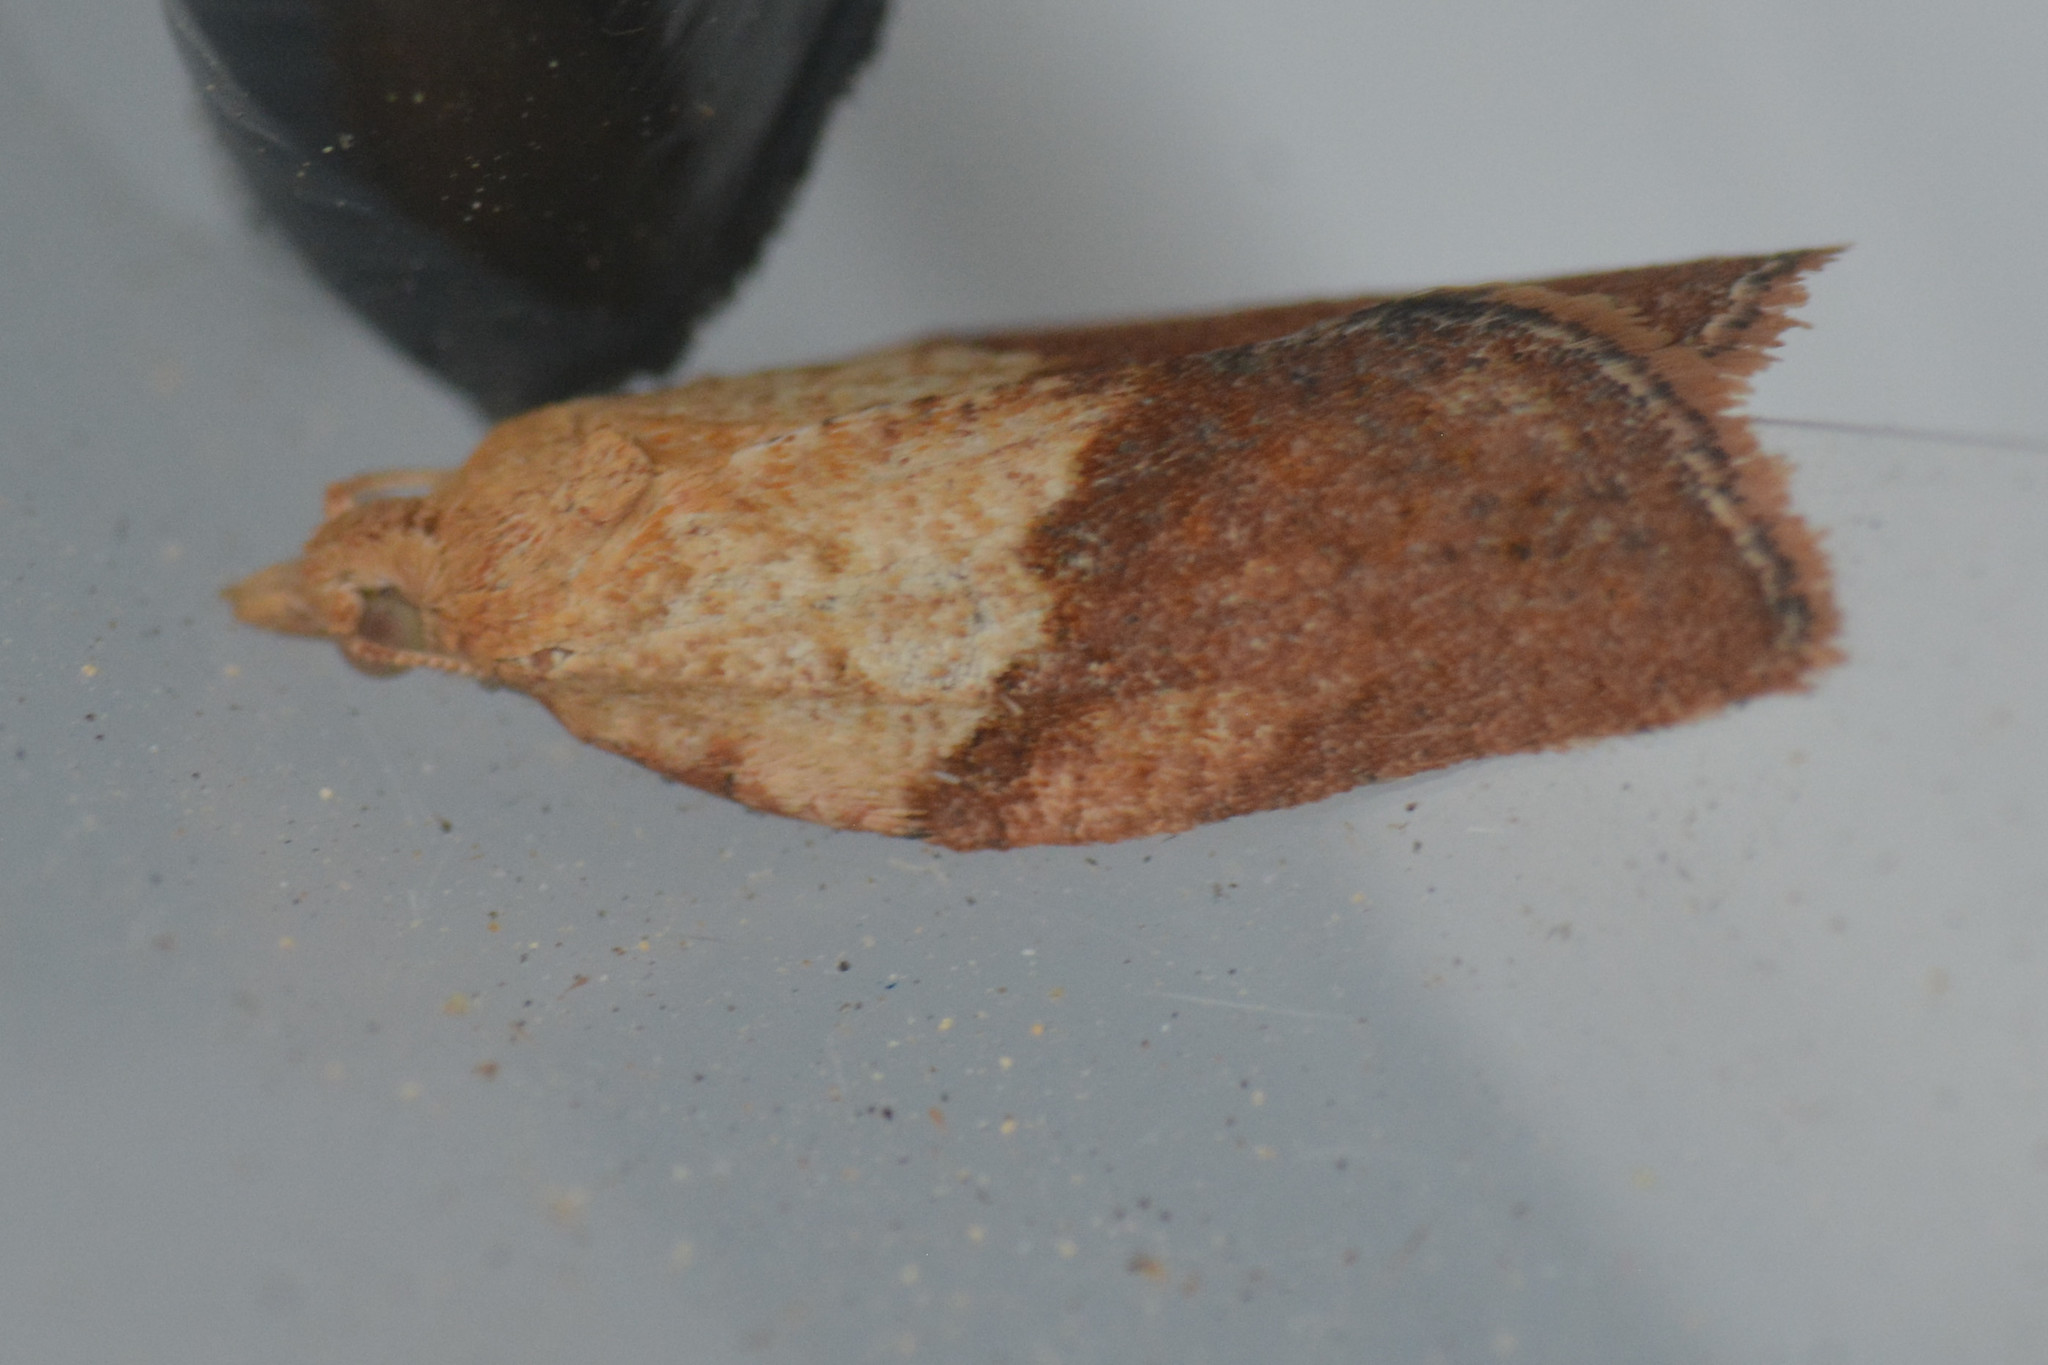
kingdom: Animalia
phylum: Arthropoda
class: Insecta
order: Lepidoptera
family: Tortricidae
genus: Epiphyas
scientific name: Epiphyas postvittana
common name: Light brown apple moth
